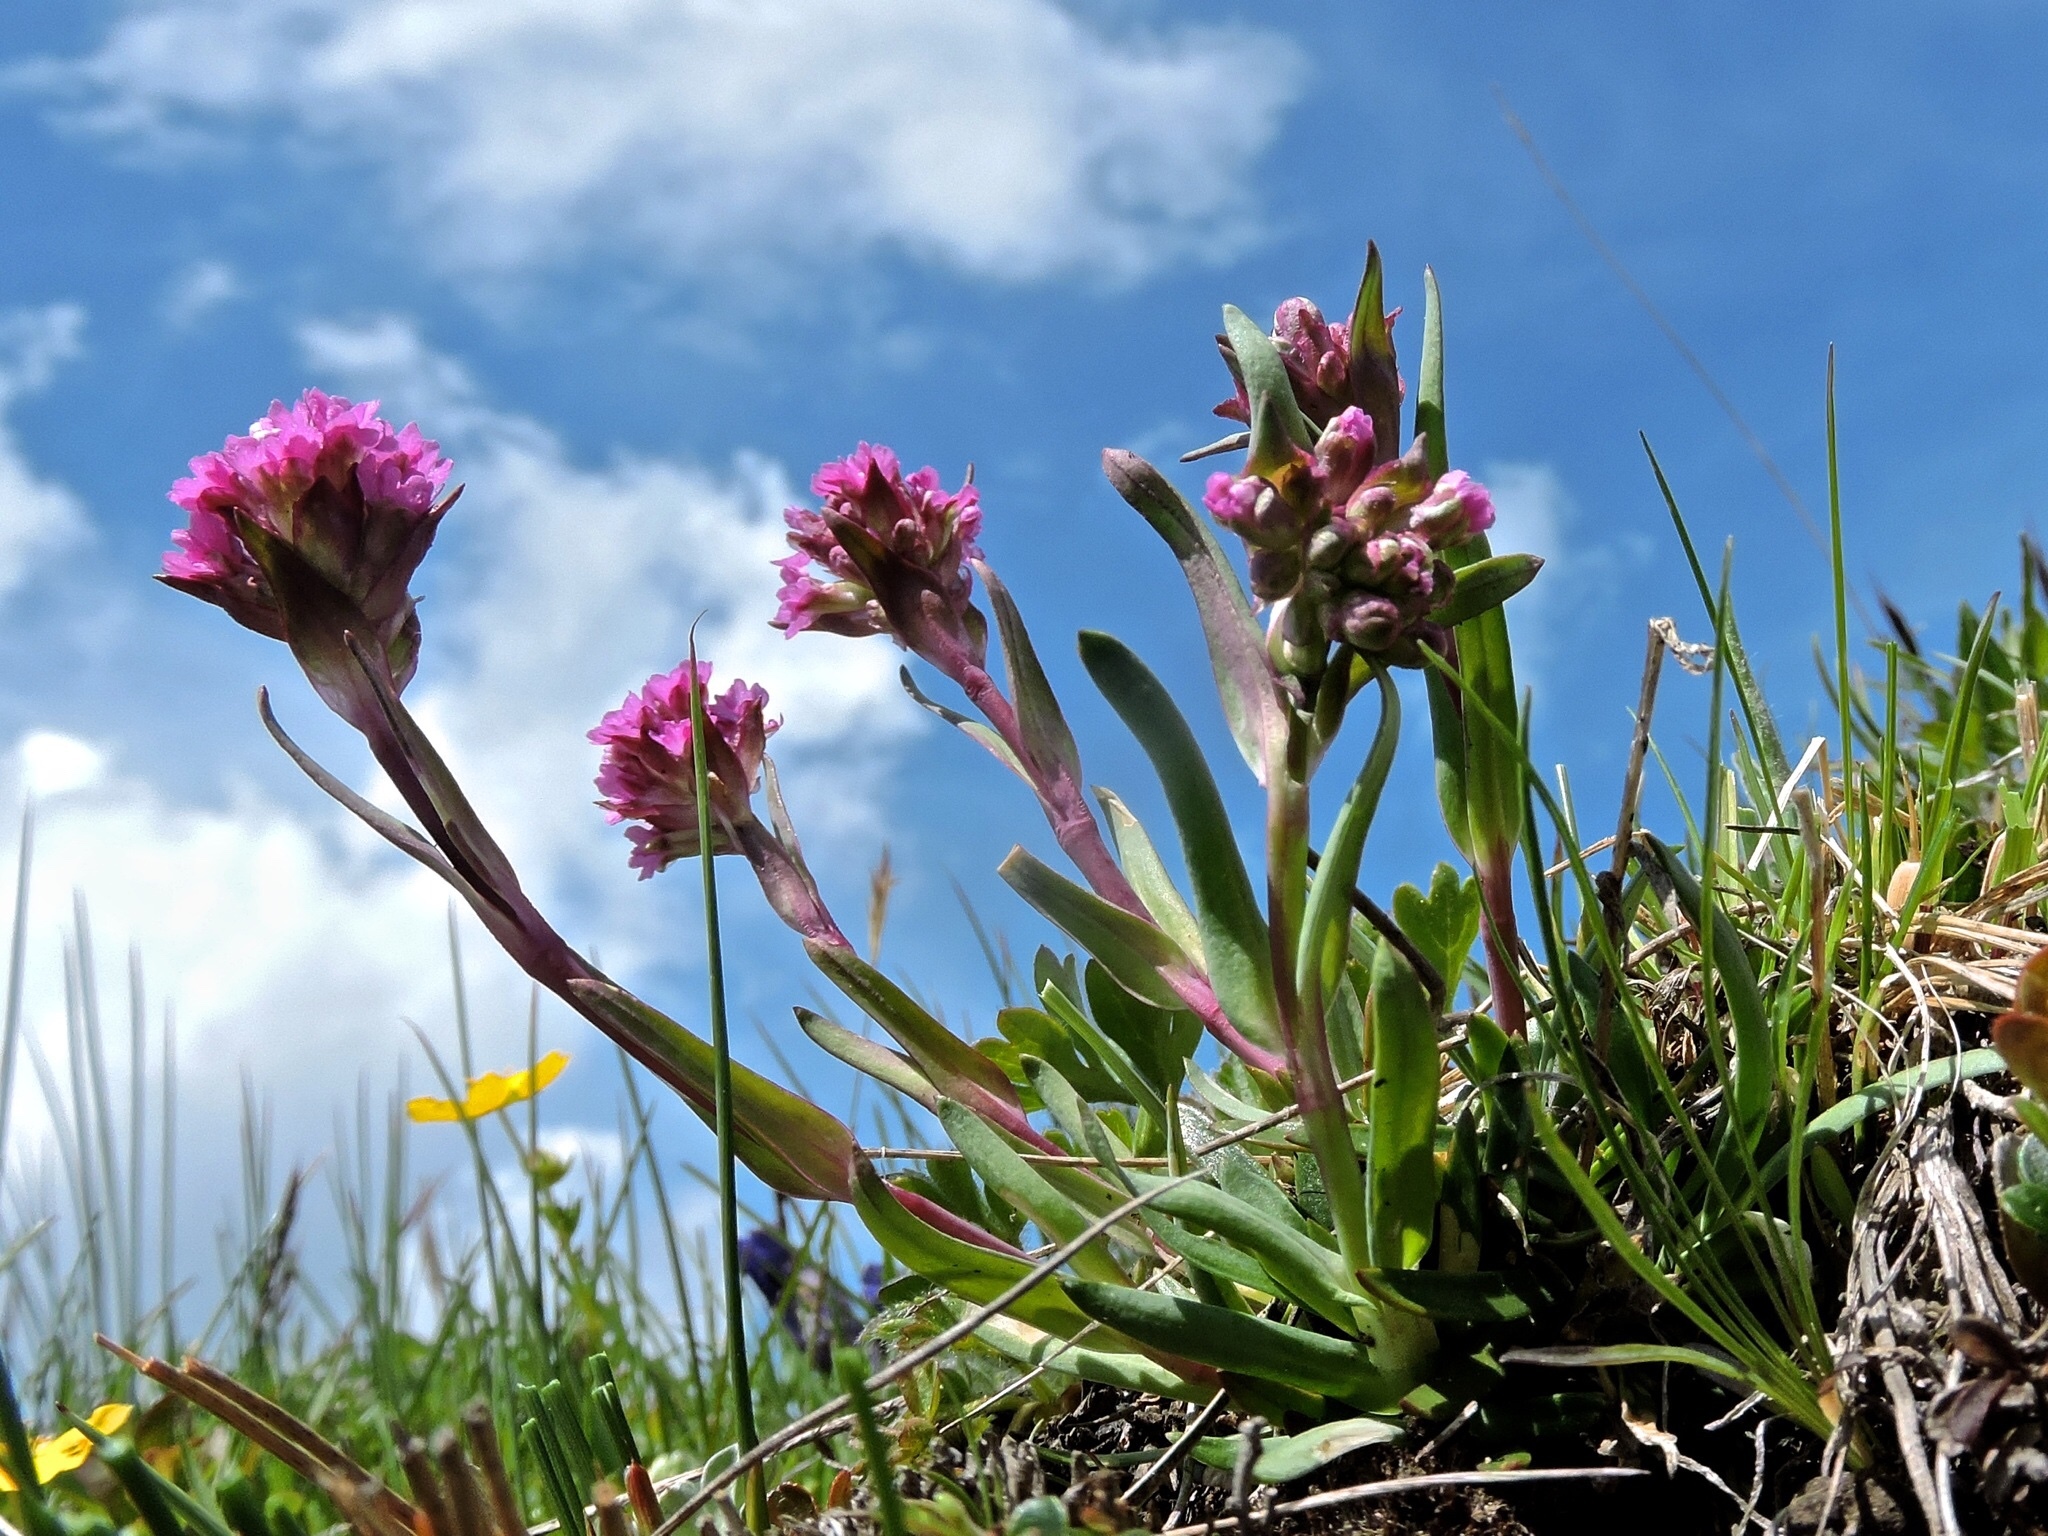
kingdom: Plantae
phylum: Tracheophyta
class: Magnoliopsida
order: Caryophyllales
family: Caryophyllaceae
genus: Viscaria
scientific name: Viscaria alpina
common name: Alpine campion
